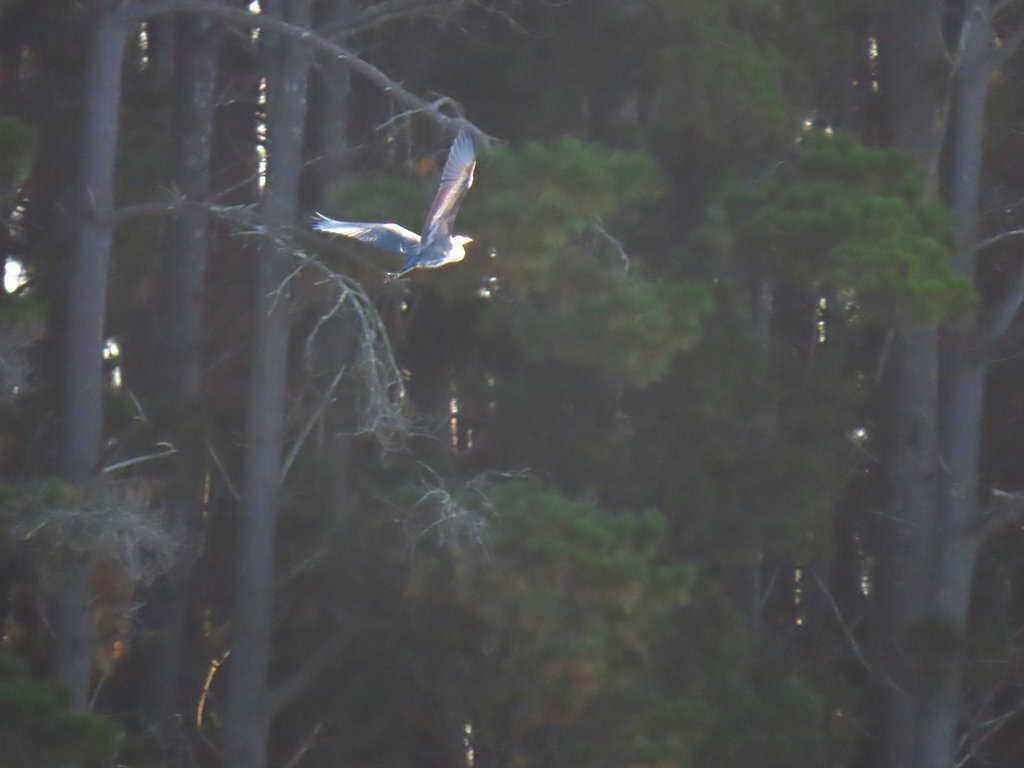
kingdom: Animalia
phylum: Chordata
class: Aves
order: Pelecaniformes
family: Ardeidae
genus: Ardea
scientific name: Ardea pacifica
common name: White-necked heron
